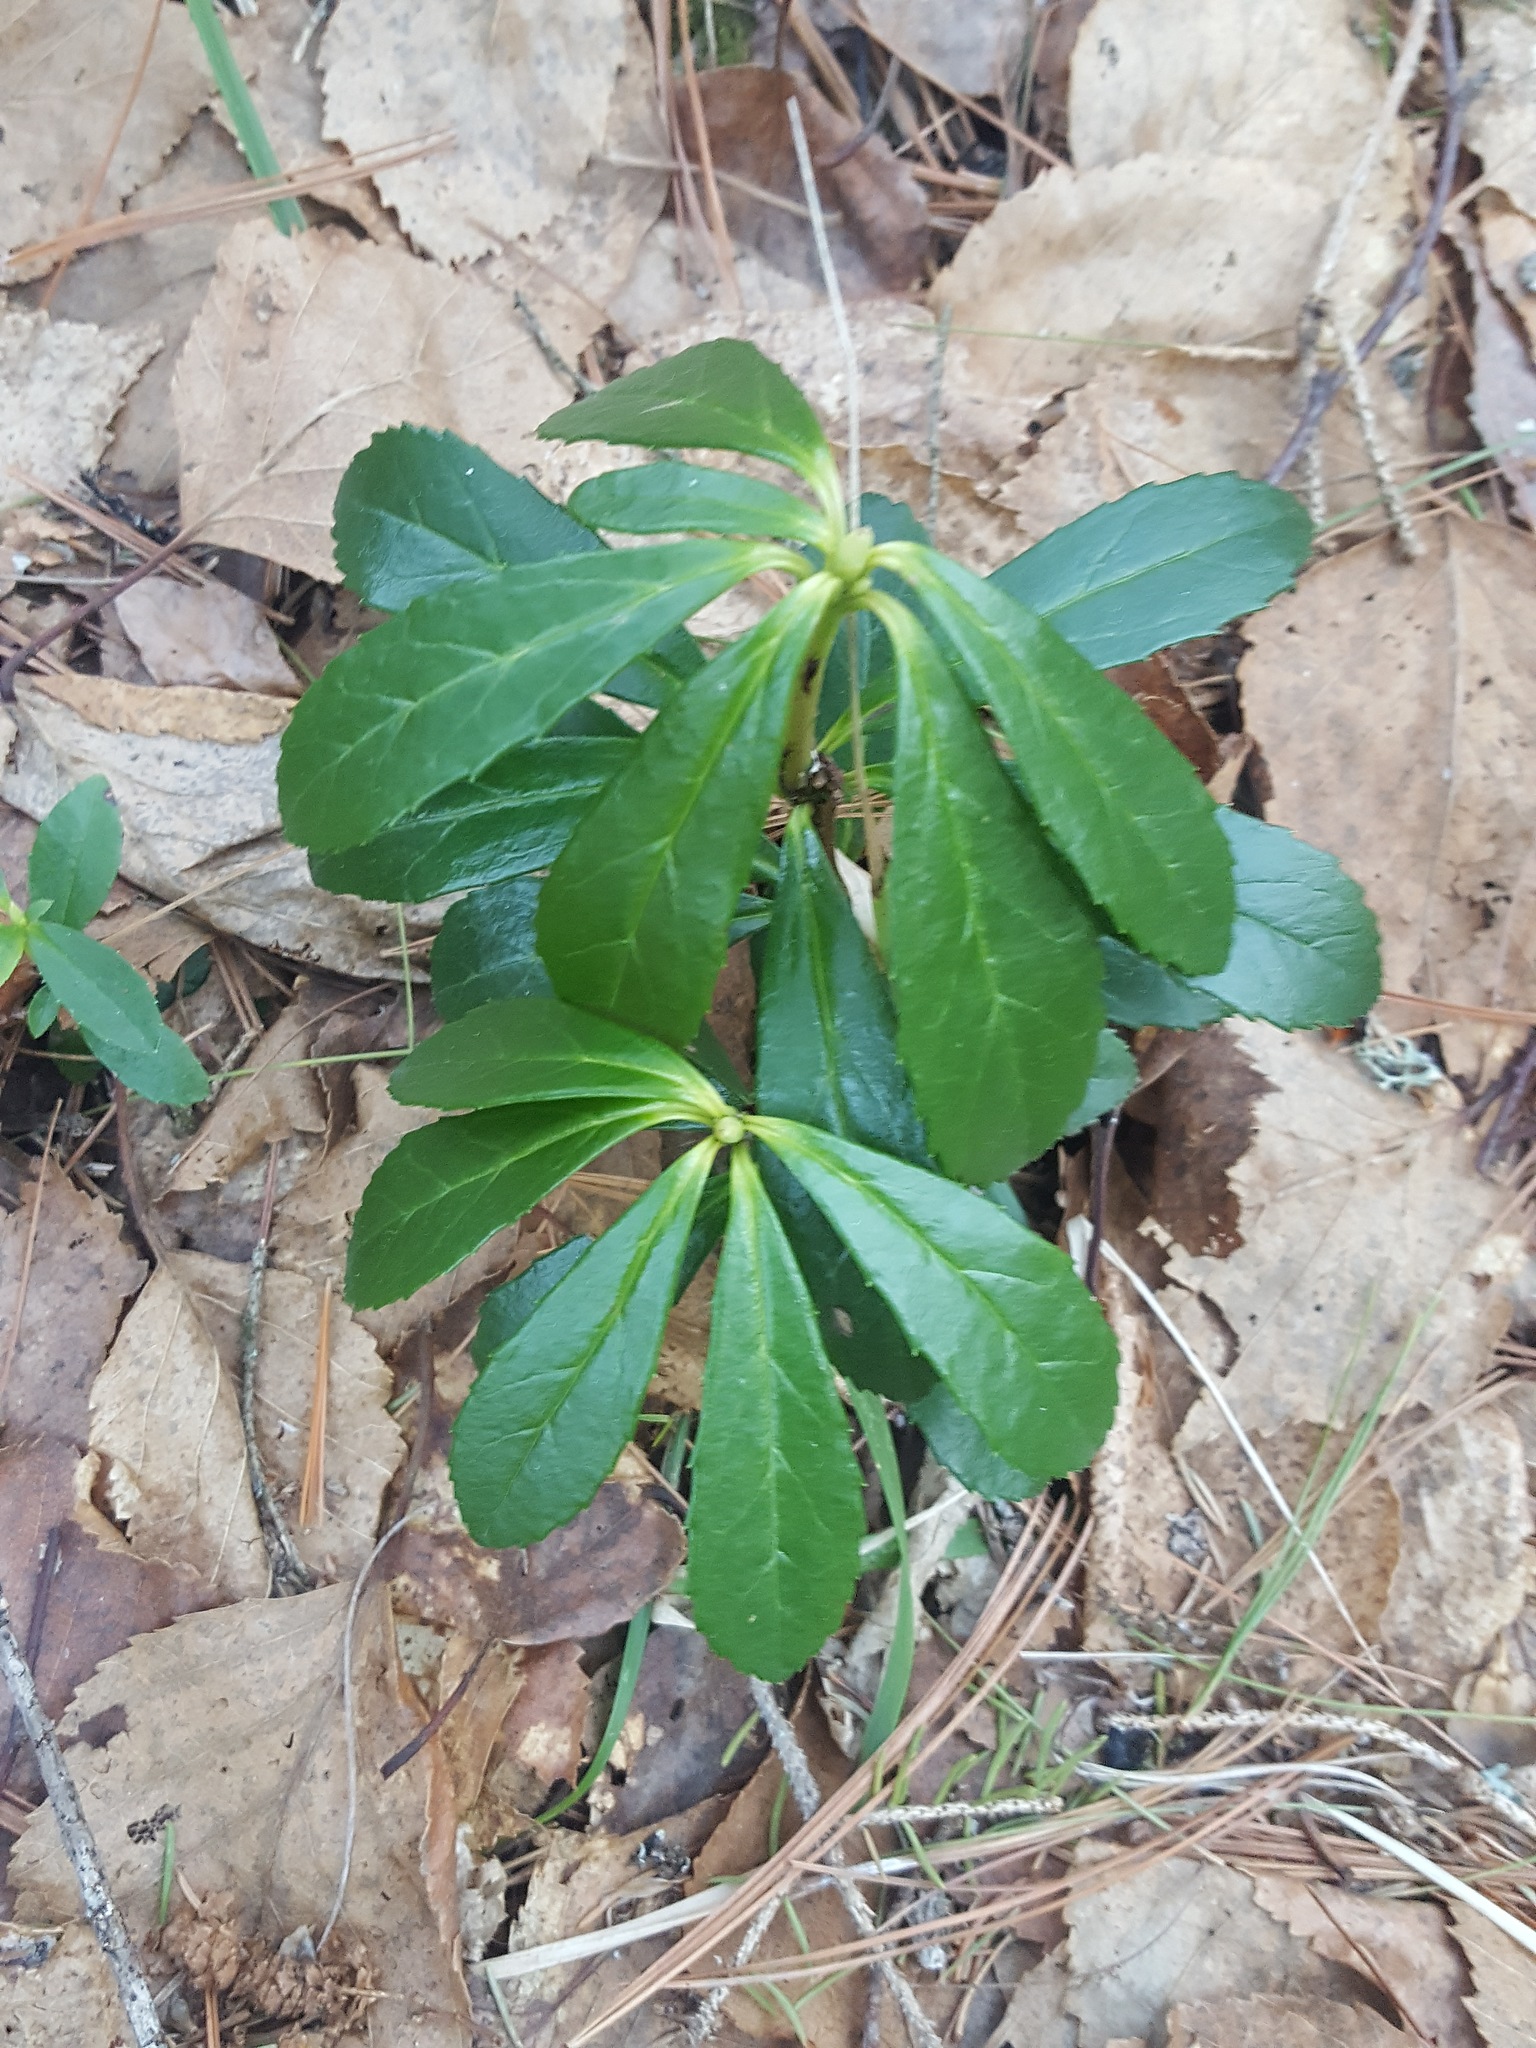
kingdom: Plantae
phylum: Tracheophyta
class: Magnoliopsida
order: Ericales
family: Ericaceae
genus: Chimaphila
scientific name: Chimaphila umbellata
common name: Pipsissewa
